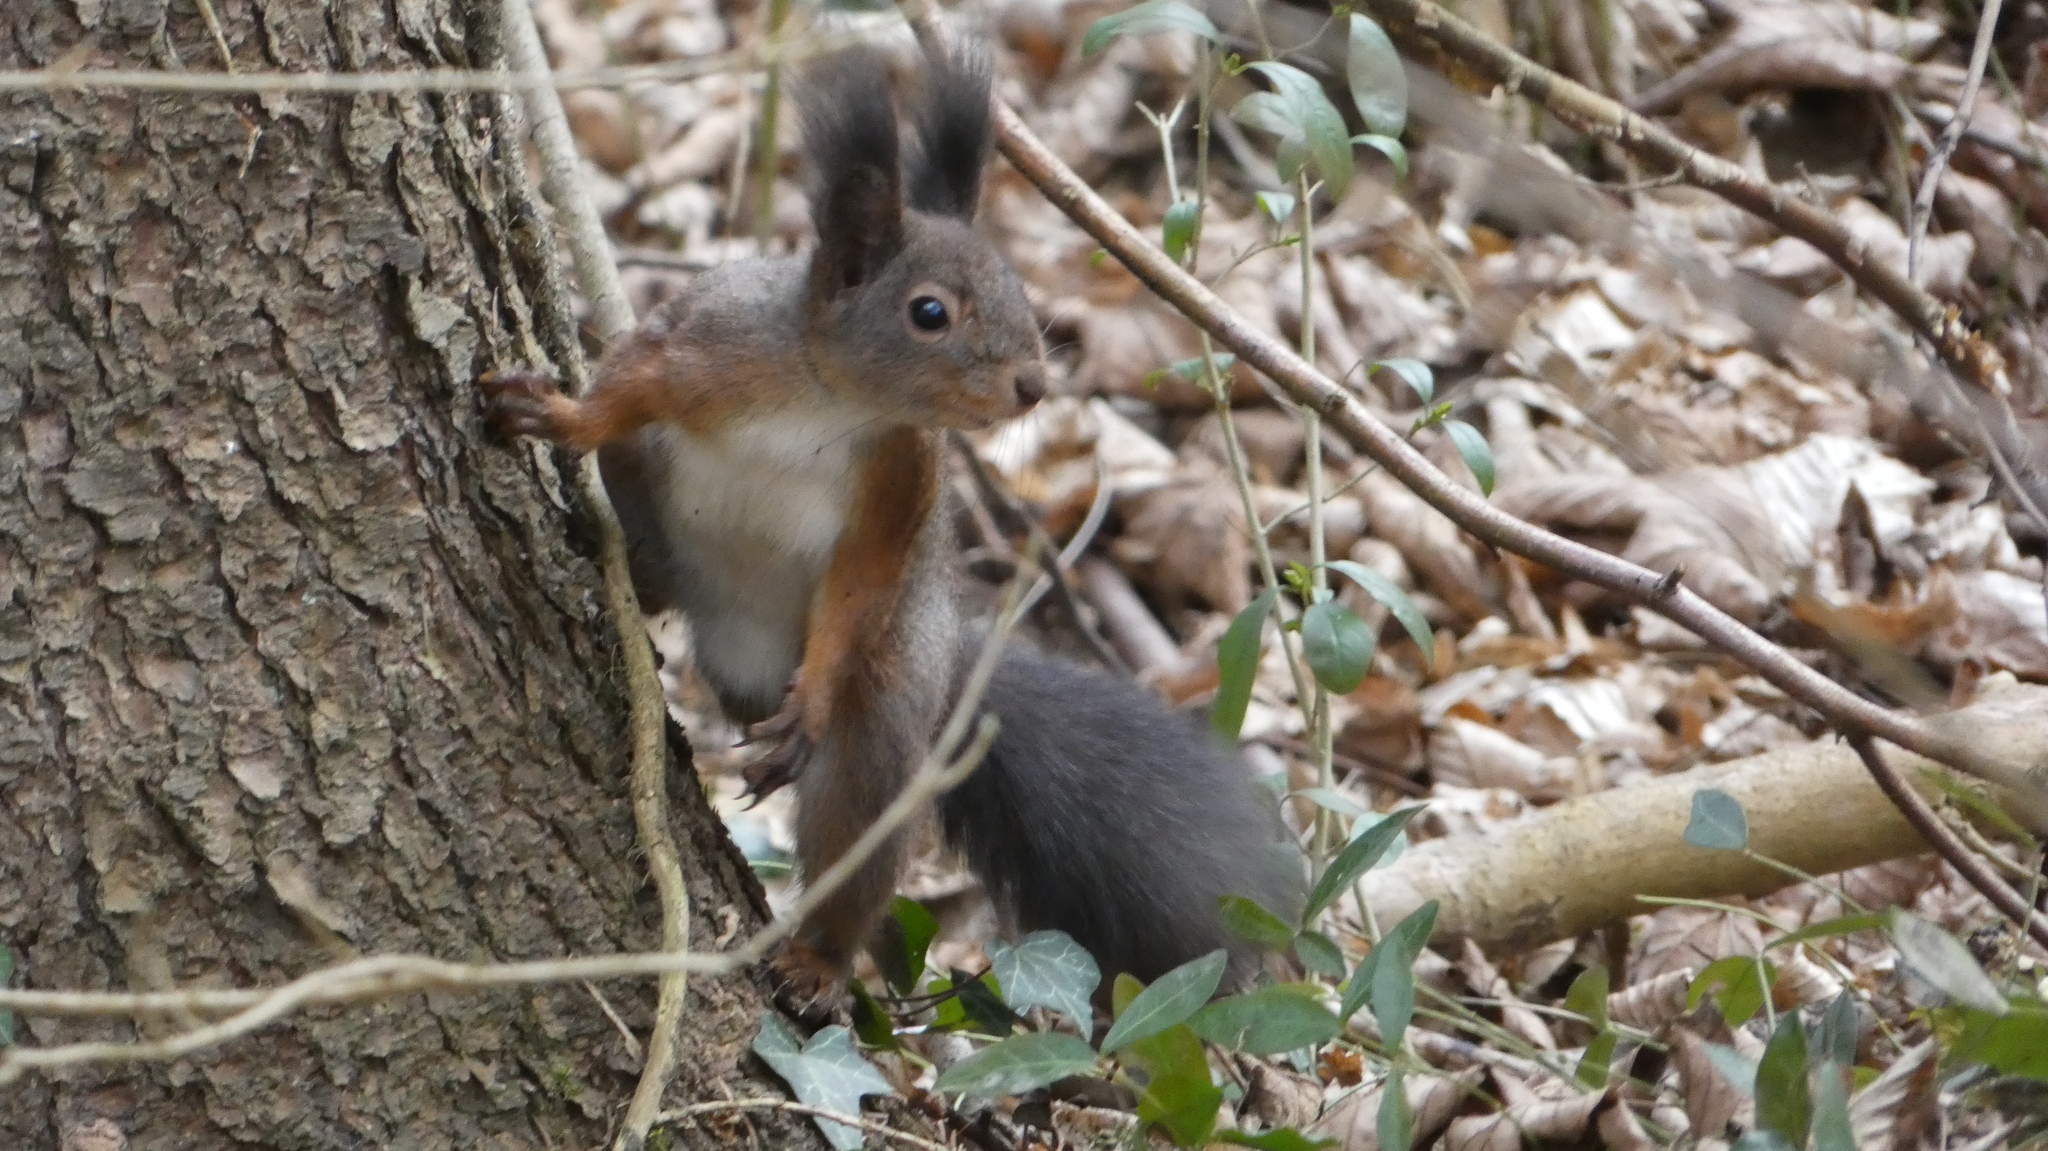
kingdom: Animalia
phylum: Chordata
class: Mammalia
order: Rodentia
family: Sciuridae
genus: Sciurus
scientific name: Sciurus vulgaris
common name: Eurasian red squirrel
